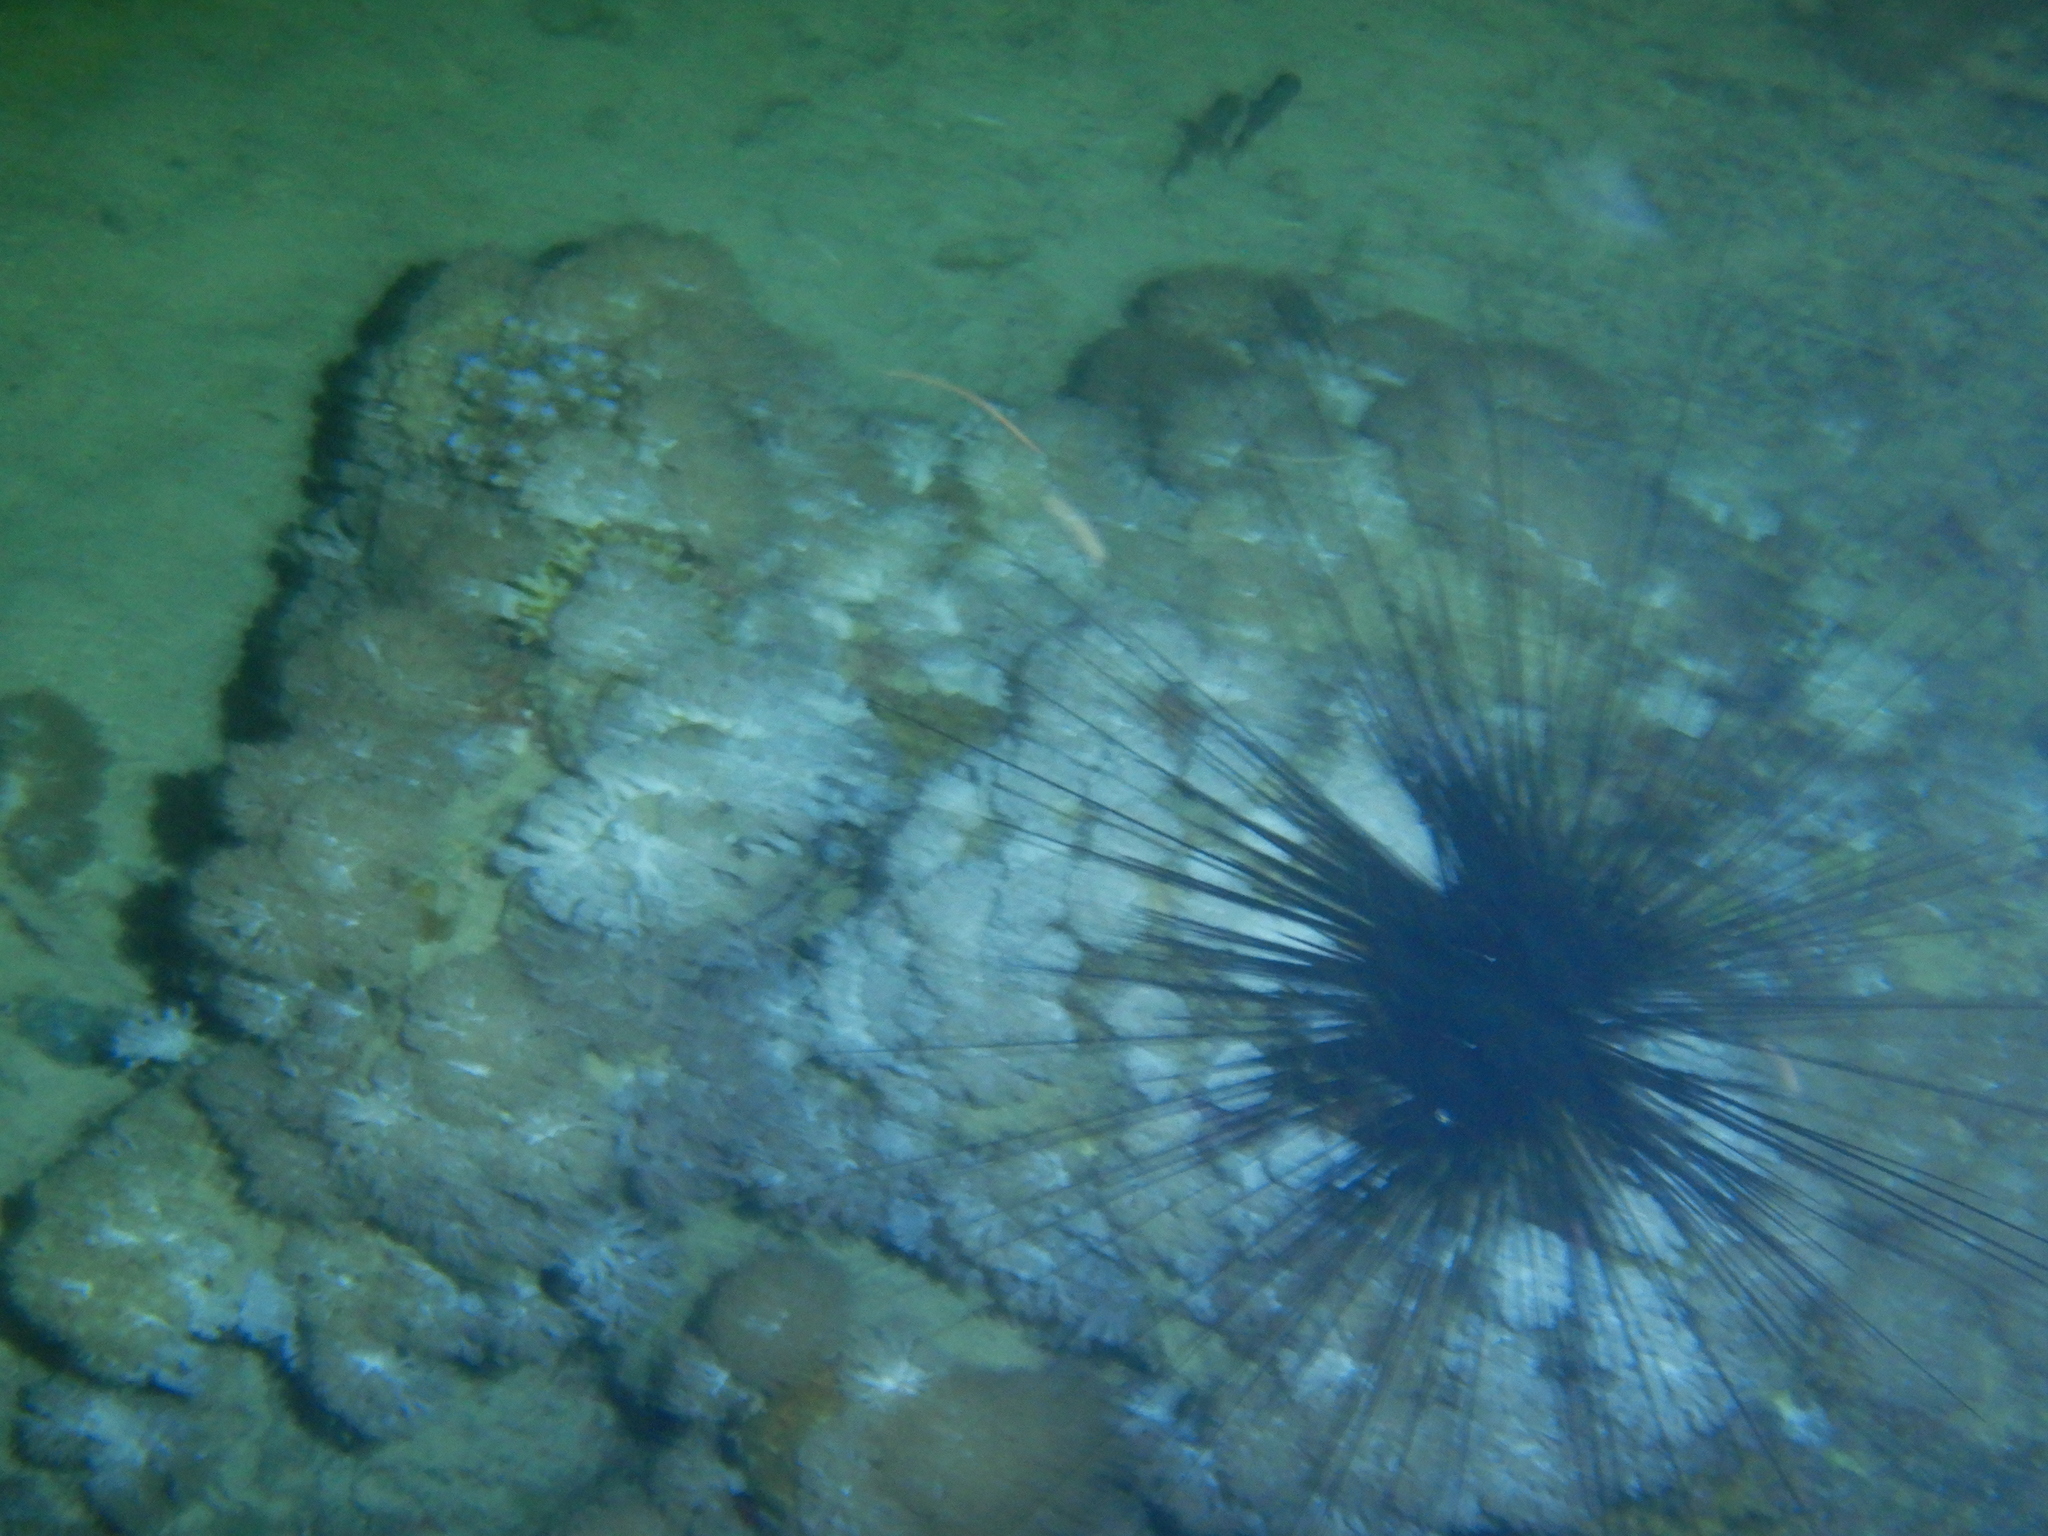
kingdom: Animalia
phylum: Echinodermata
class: Echinoidea
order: Diadematoida
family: Diadematidae
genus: Diadema
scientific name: Diadema setosum
